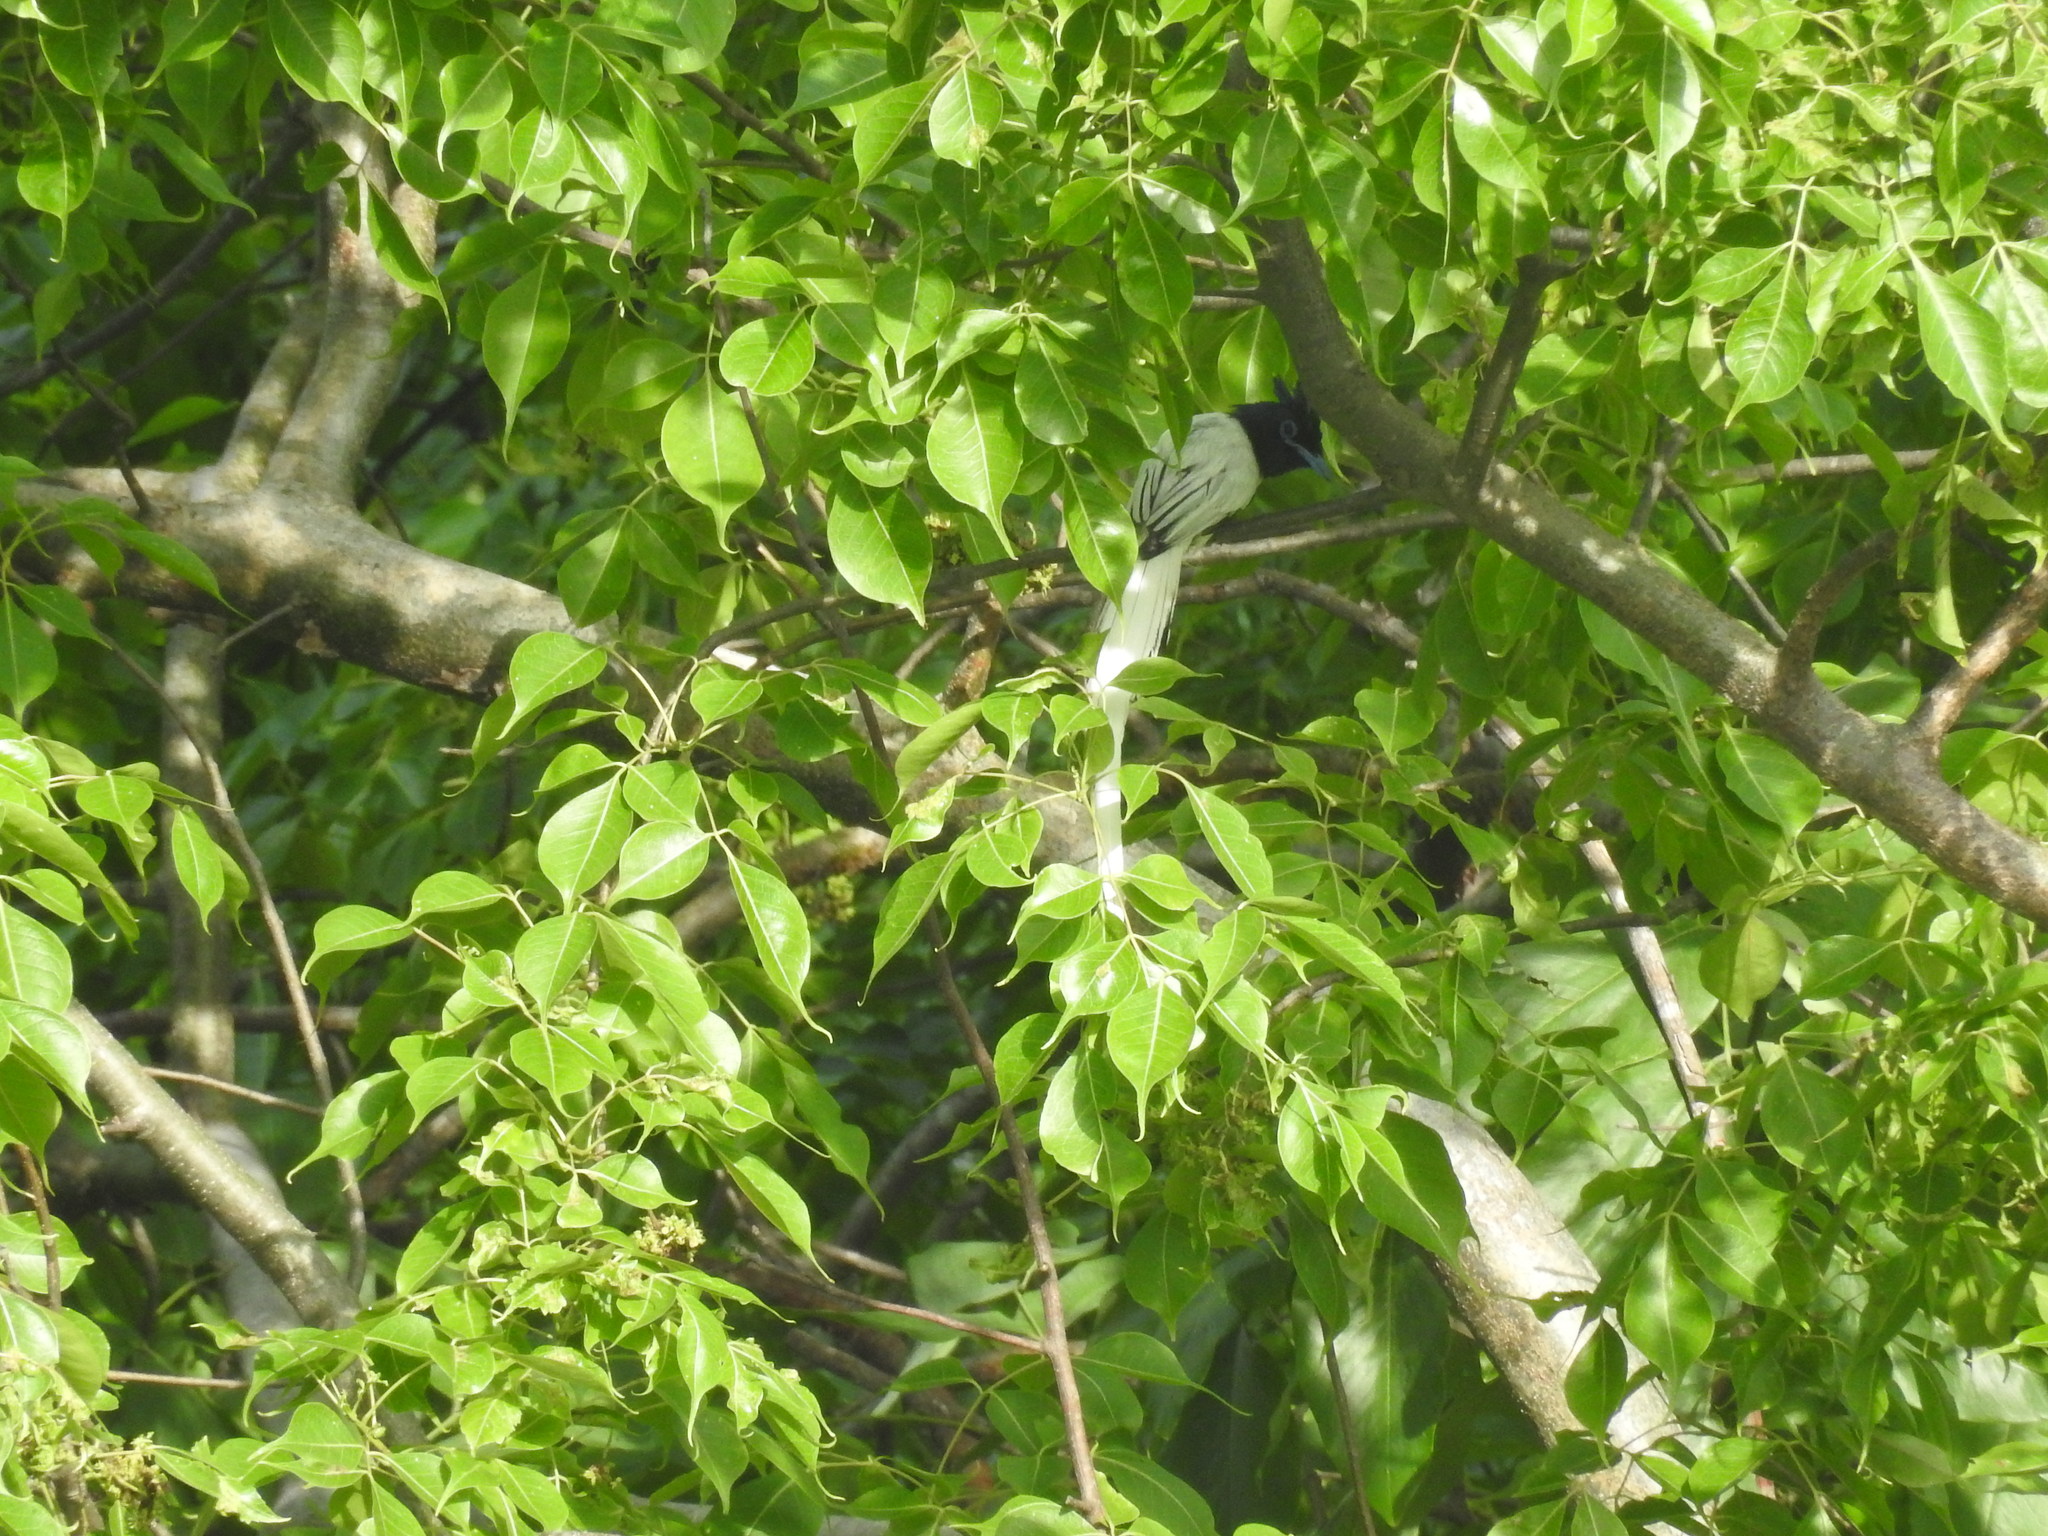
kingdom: Animalia
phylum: Chordata
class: Aves
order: Passeriformes
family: Monarchidae
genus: Terpsiphone
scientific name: Terpsiphone paradisi
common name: Indian paradise flycatcher
